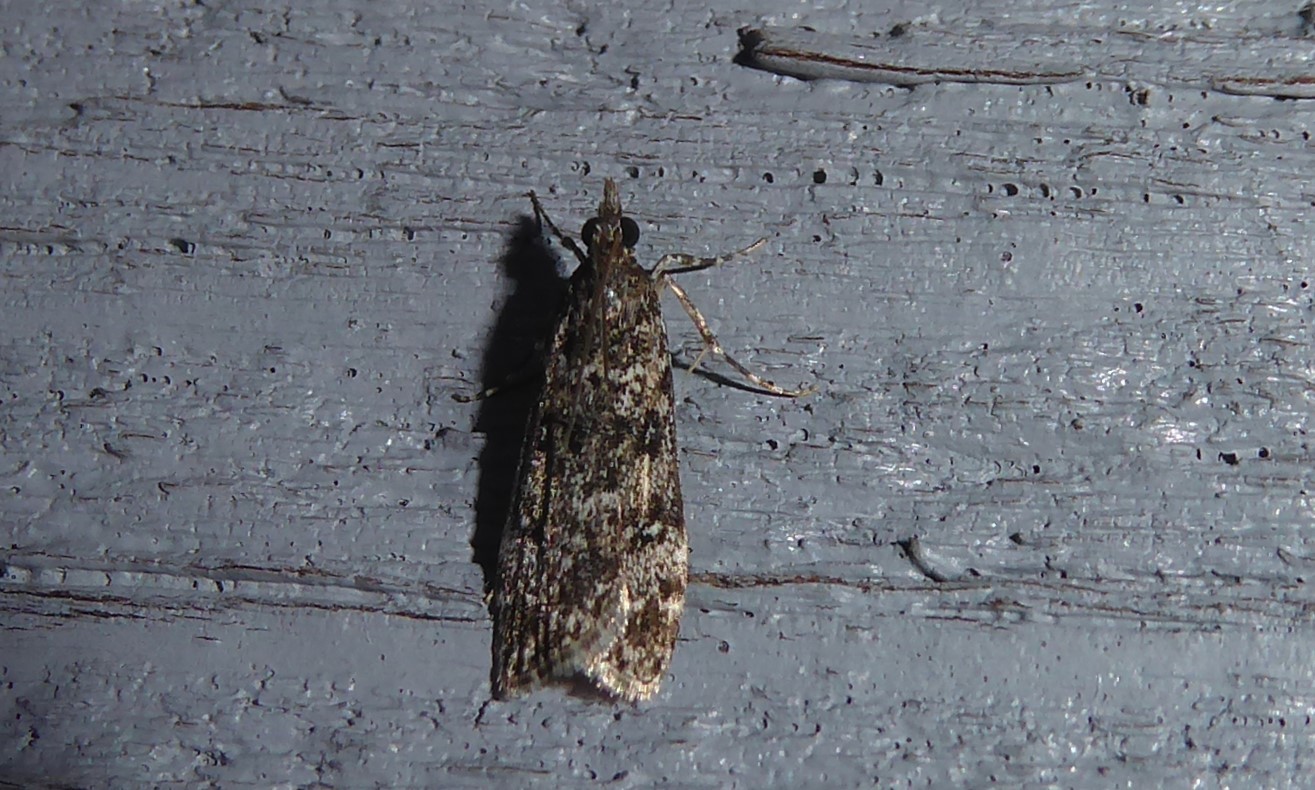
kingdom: Animalia
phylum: Arthropoda
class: Insecta
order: Lepidoptera
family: Crambidae
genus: Eudonia
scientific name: Eudonia philerga
